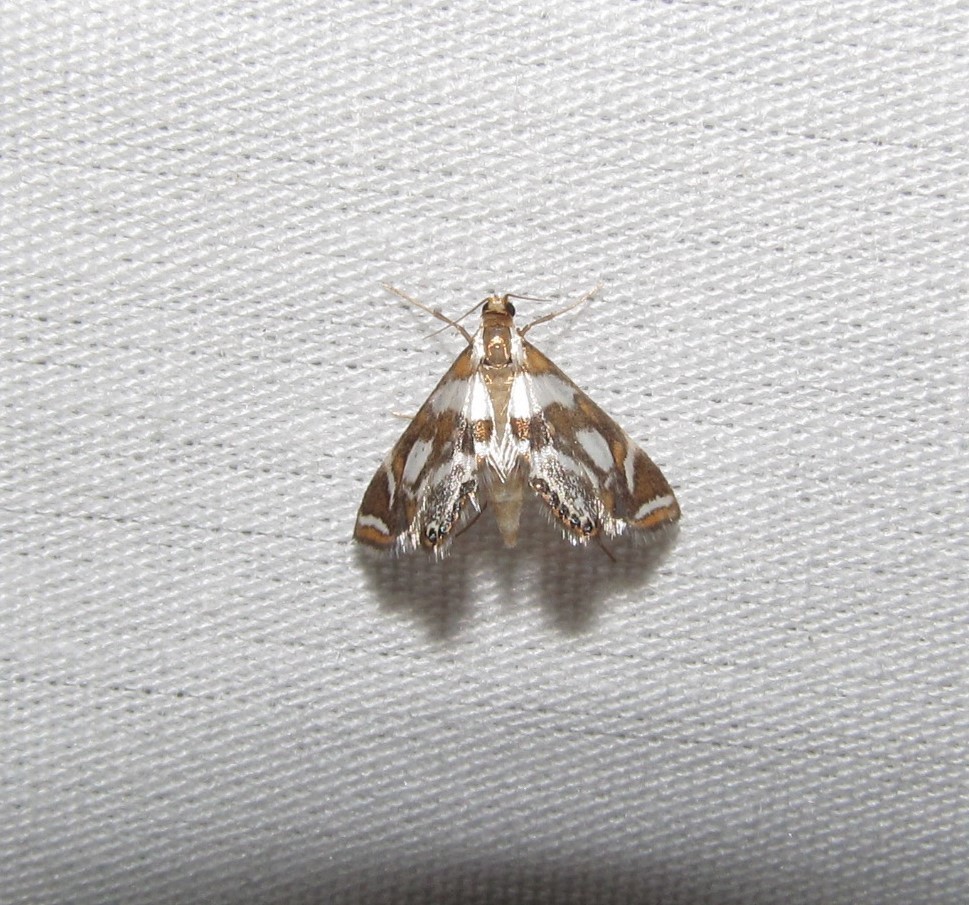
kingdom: Animalia
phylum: Arthropoda
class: Insecta
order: Lepidoptera
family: Crambidae
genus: Chrysendeton
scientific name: Chrysendeton medicinalis
